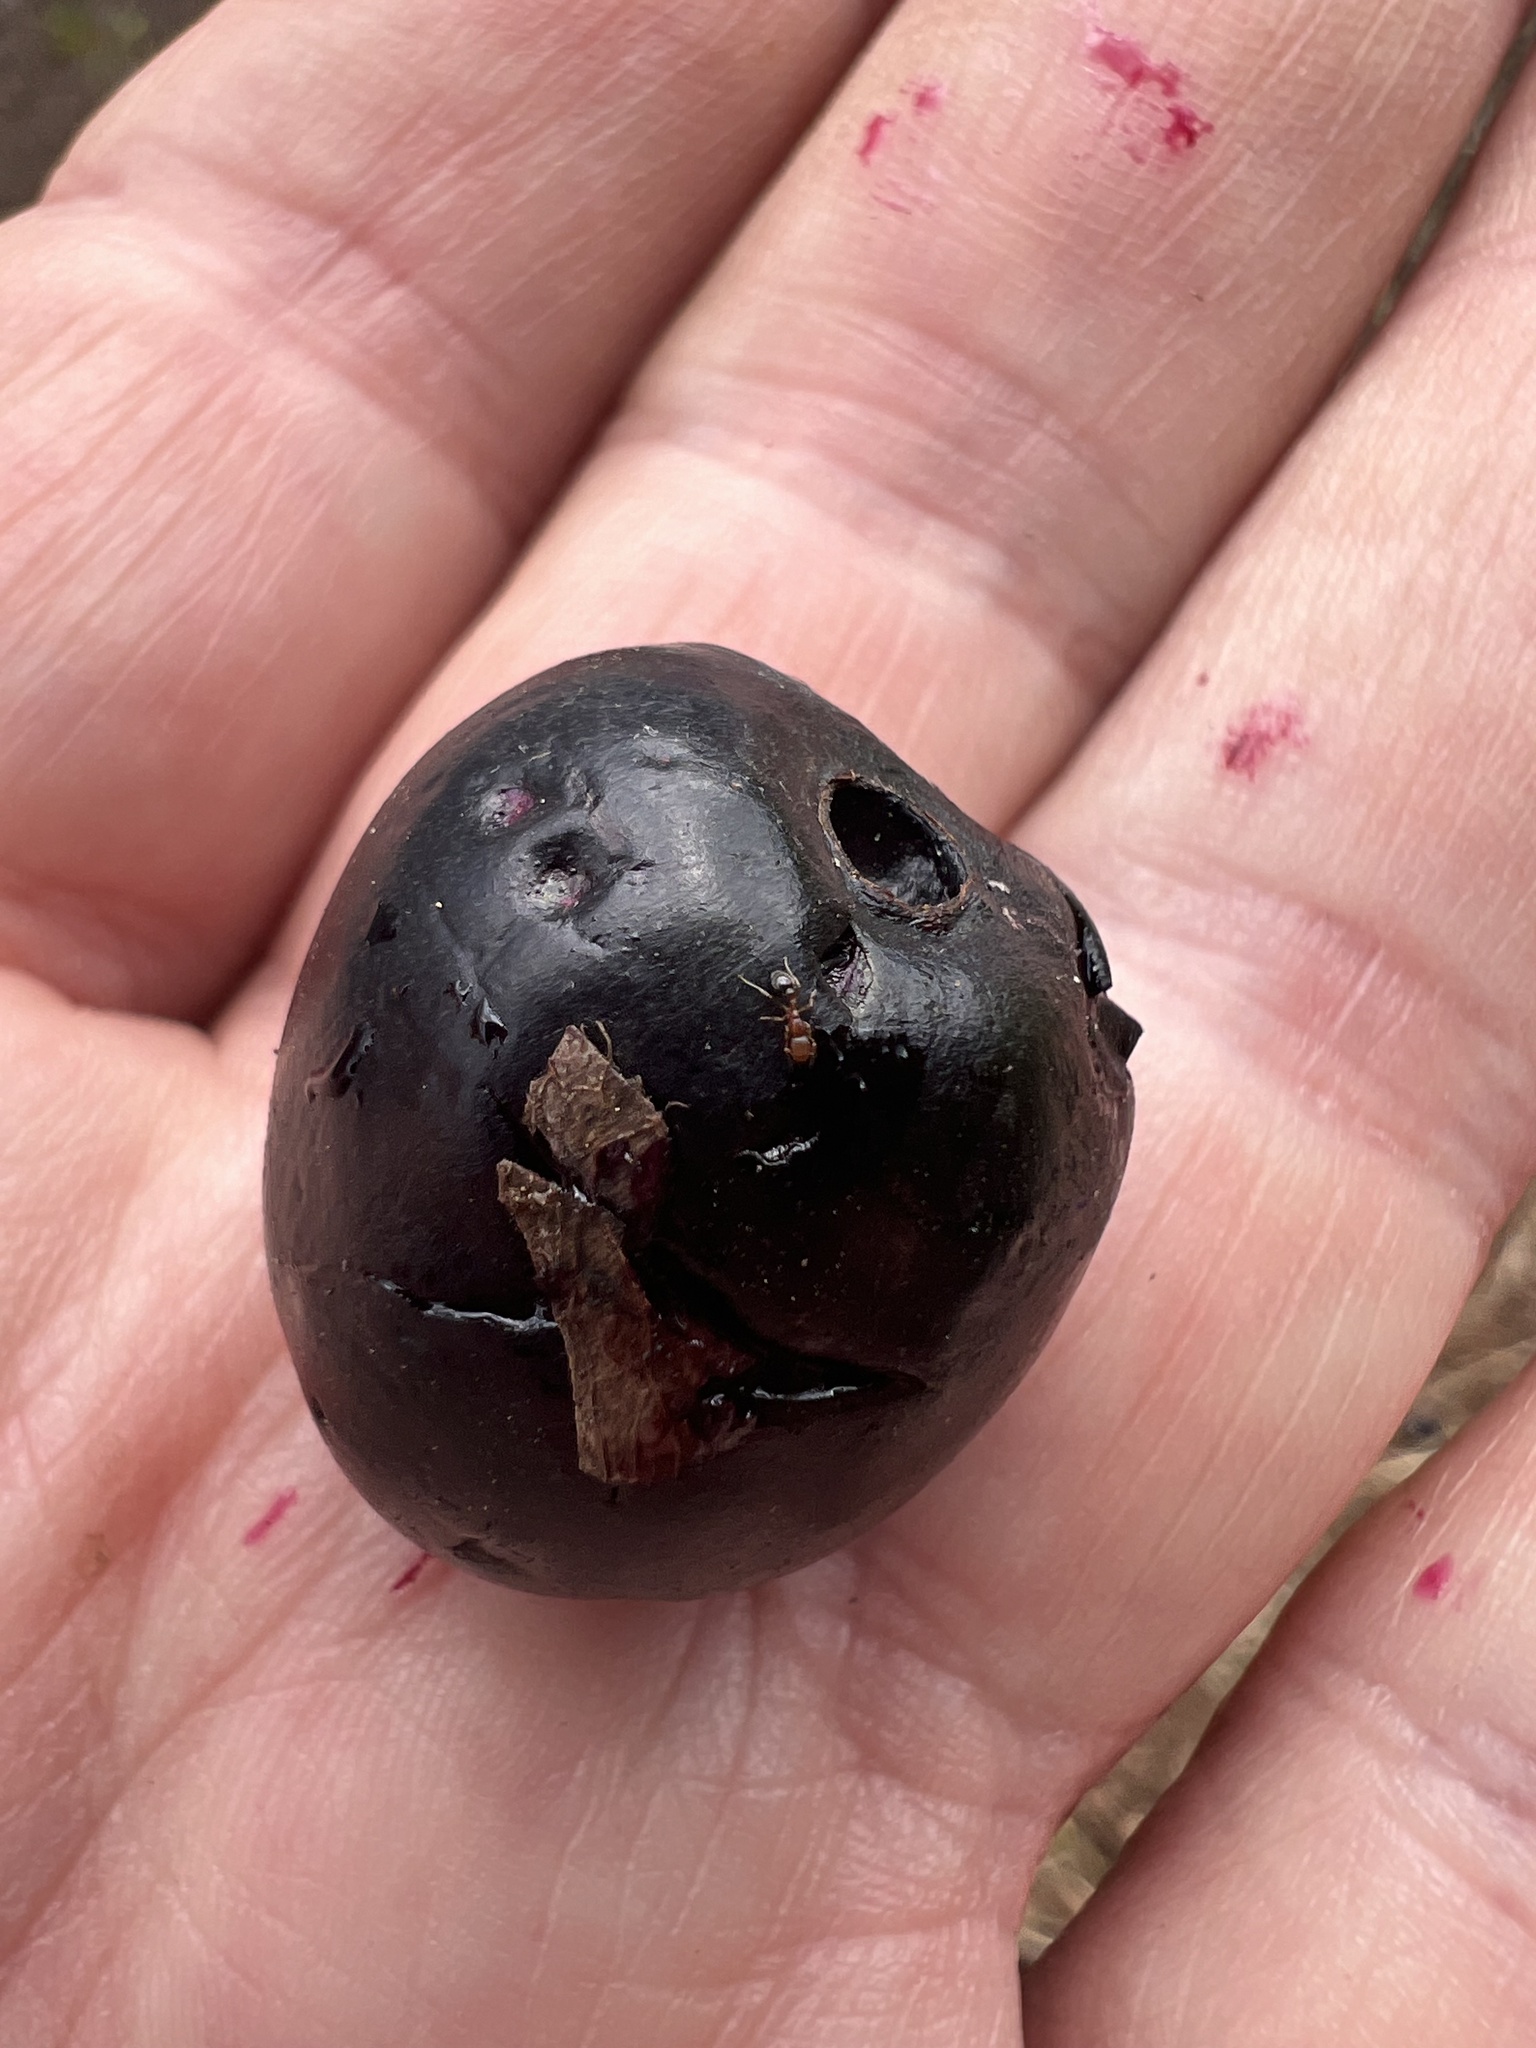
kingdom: Plantae
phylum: Tracheophyta
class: Magnoliopsida
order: Myrtales
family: Myrtaceae
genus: Syzygium
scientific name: Syzygium cumini
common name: Java plum
